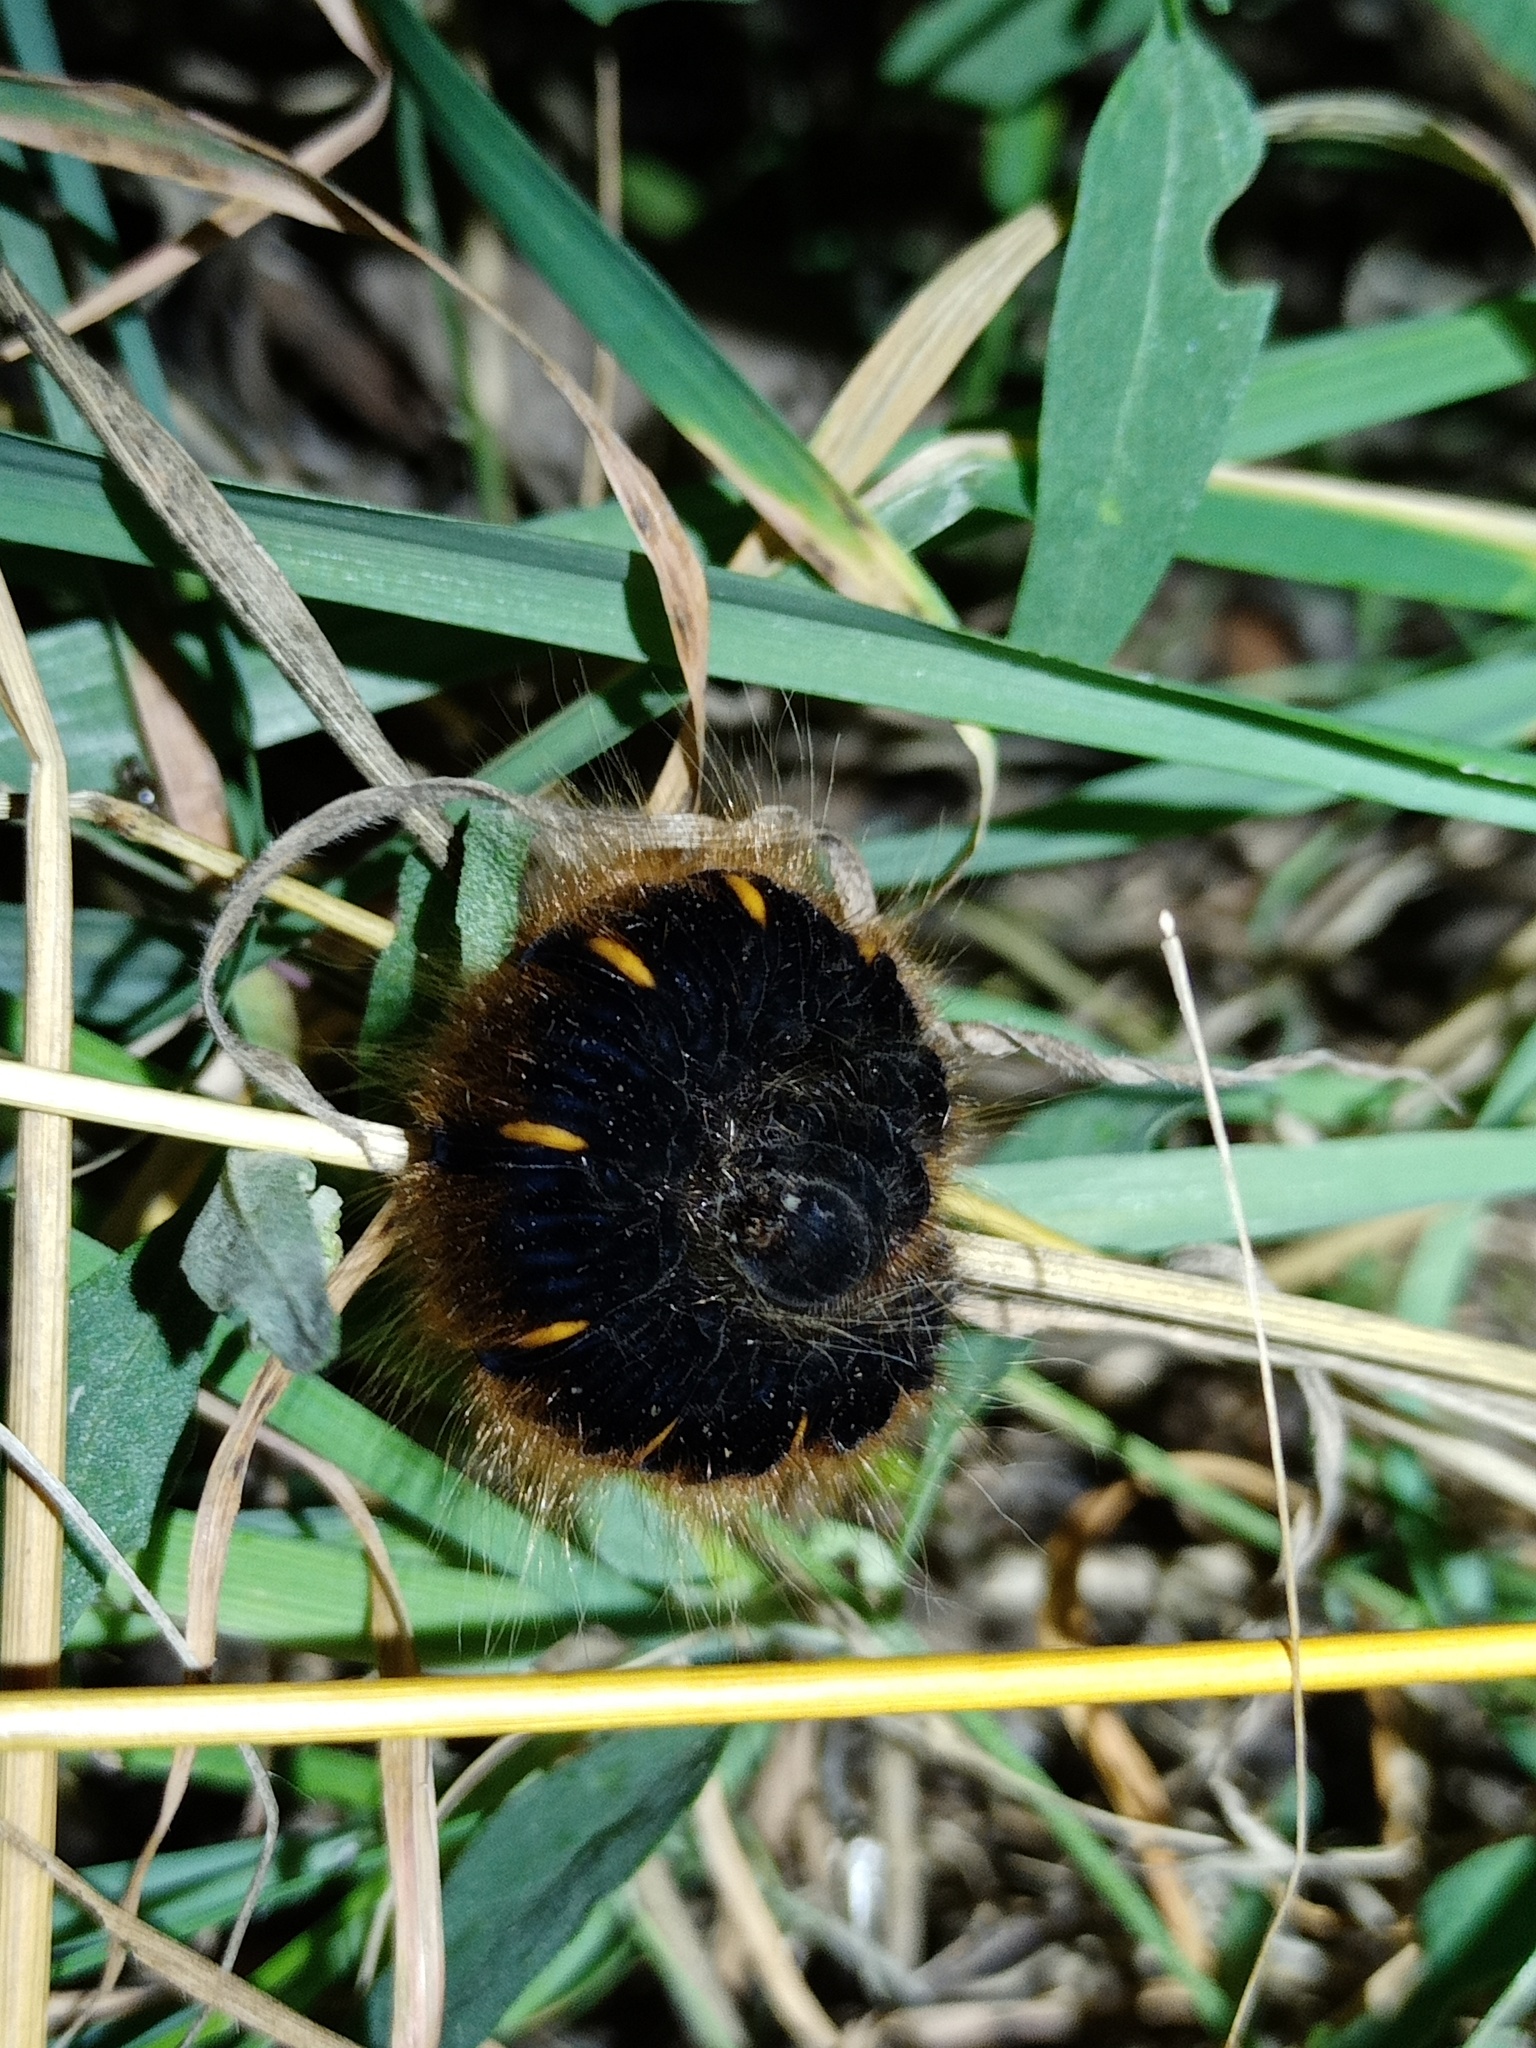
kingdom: Animalia
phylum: Arthropoda
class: Insecta
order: Lepidoptera
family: Lasiocampidae
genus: Macrothylacia
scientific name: Macrothylacia rubi
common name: Fox moth
